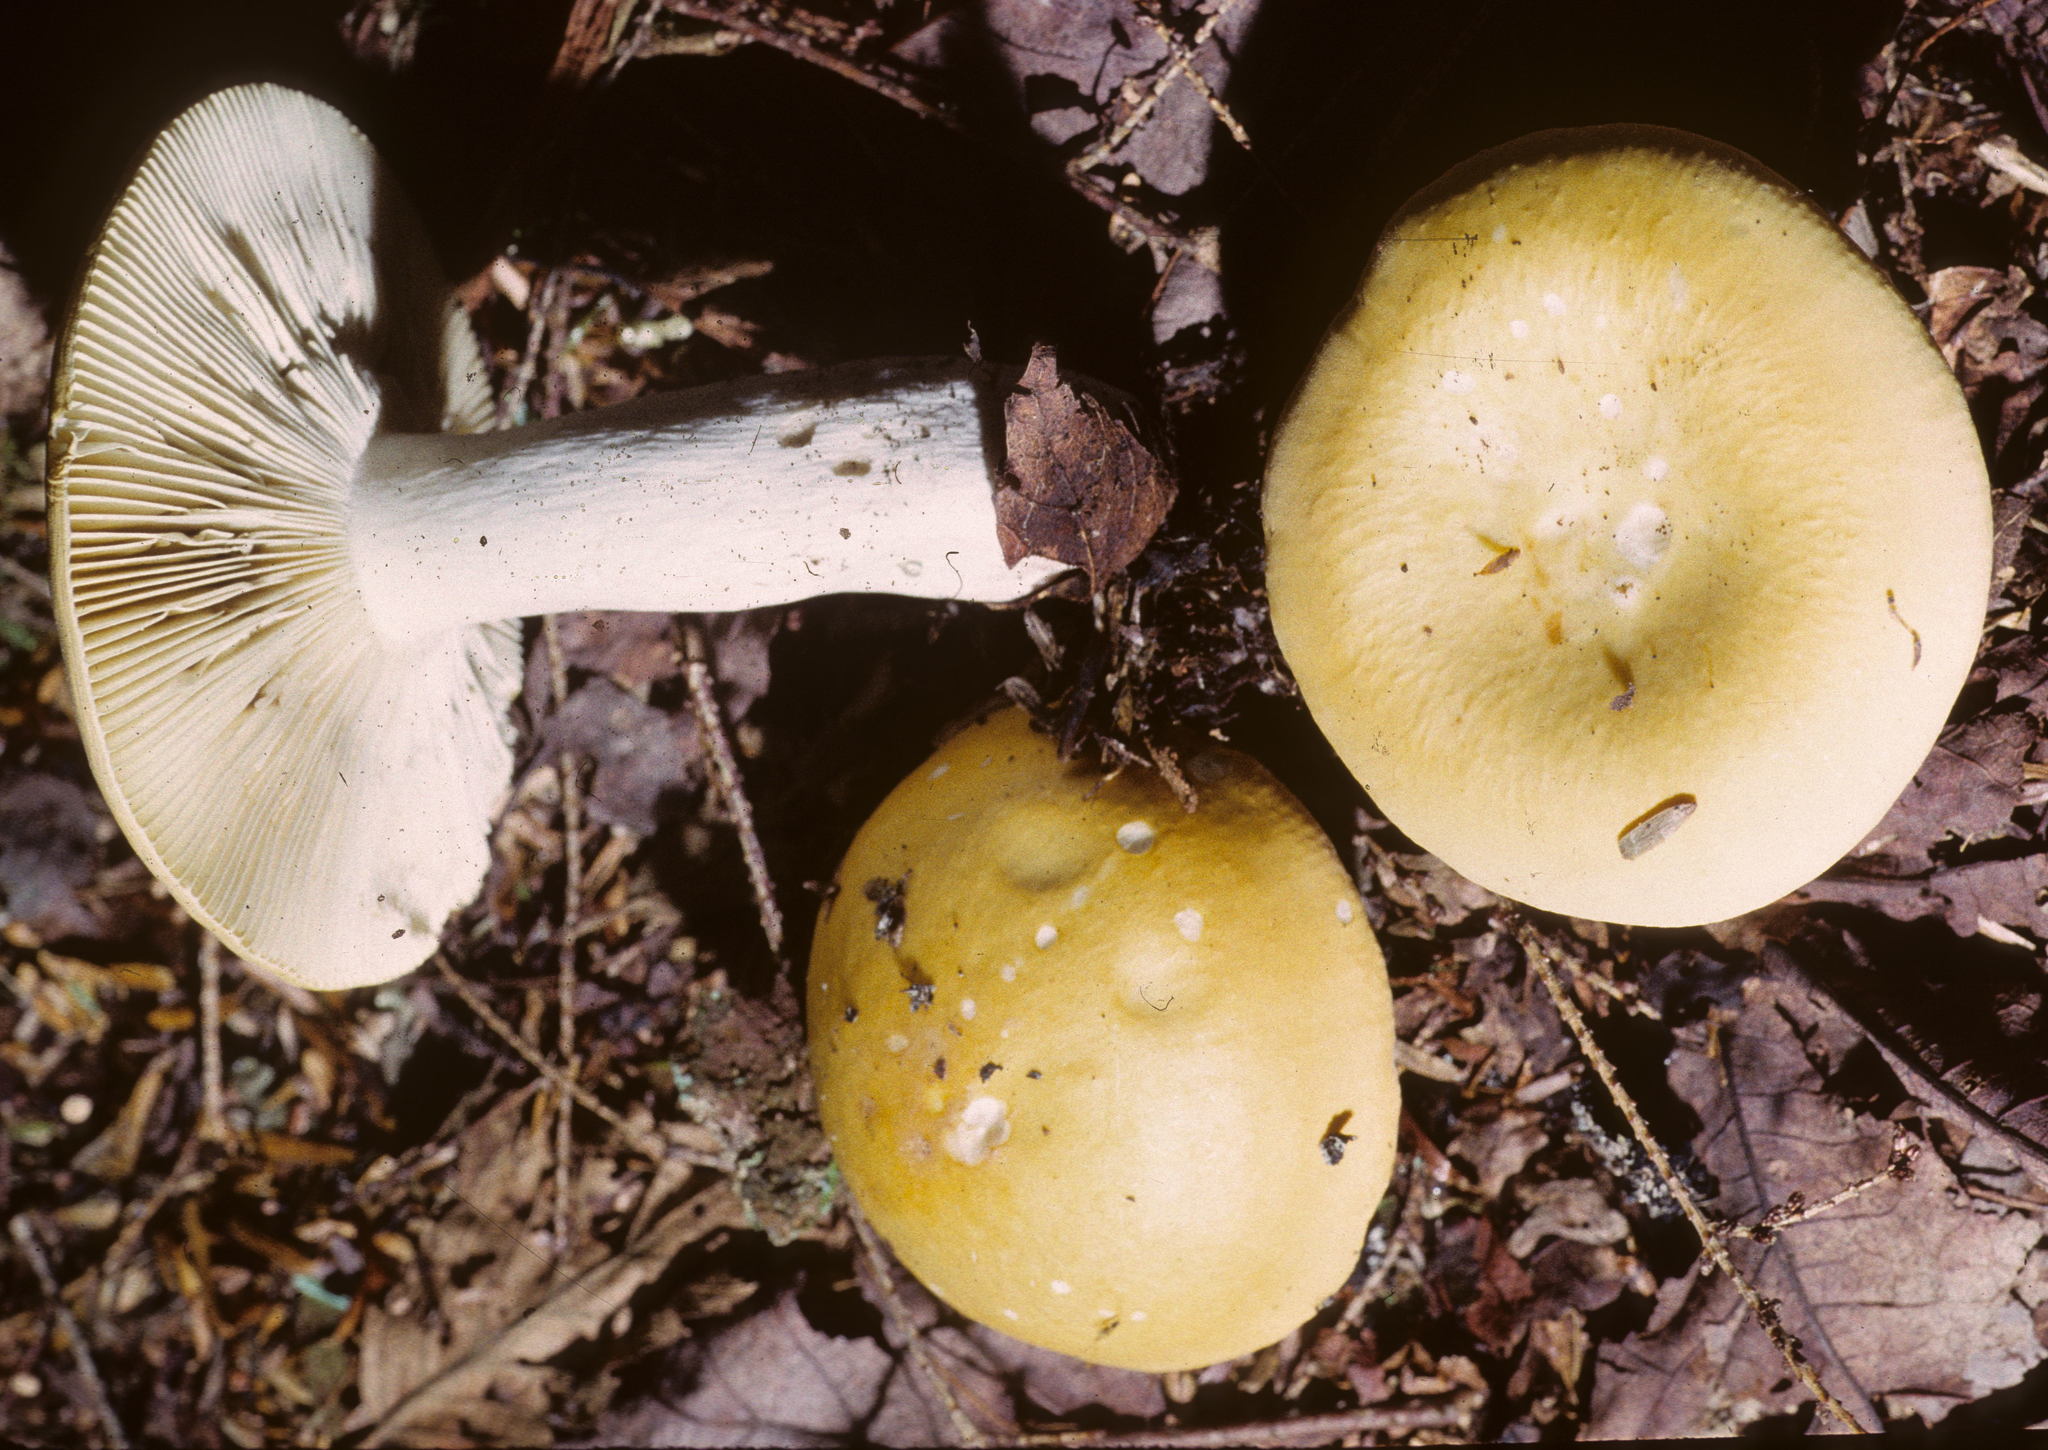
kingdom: Fungi
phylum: Basidiomycota
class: Agaricomycetes
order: Russulales
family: Russulaceae
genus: Russula
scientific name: Russula ochroleucoides
